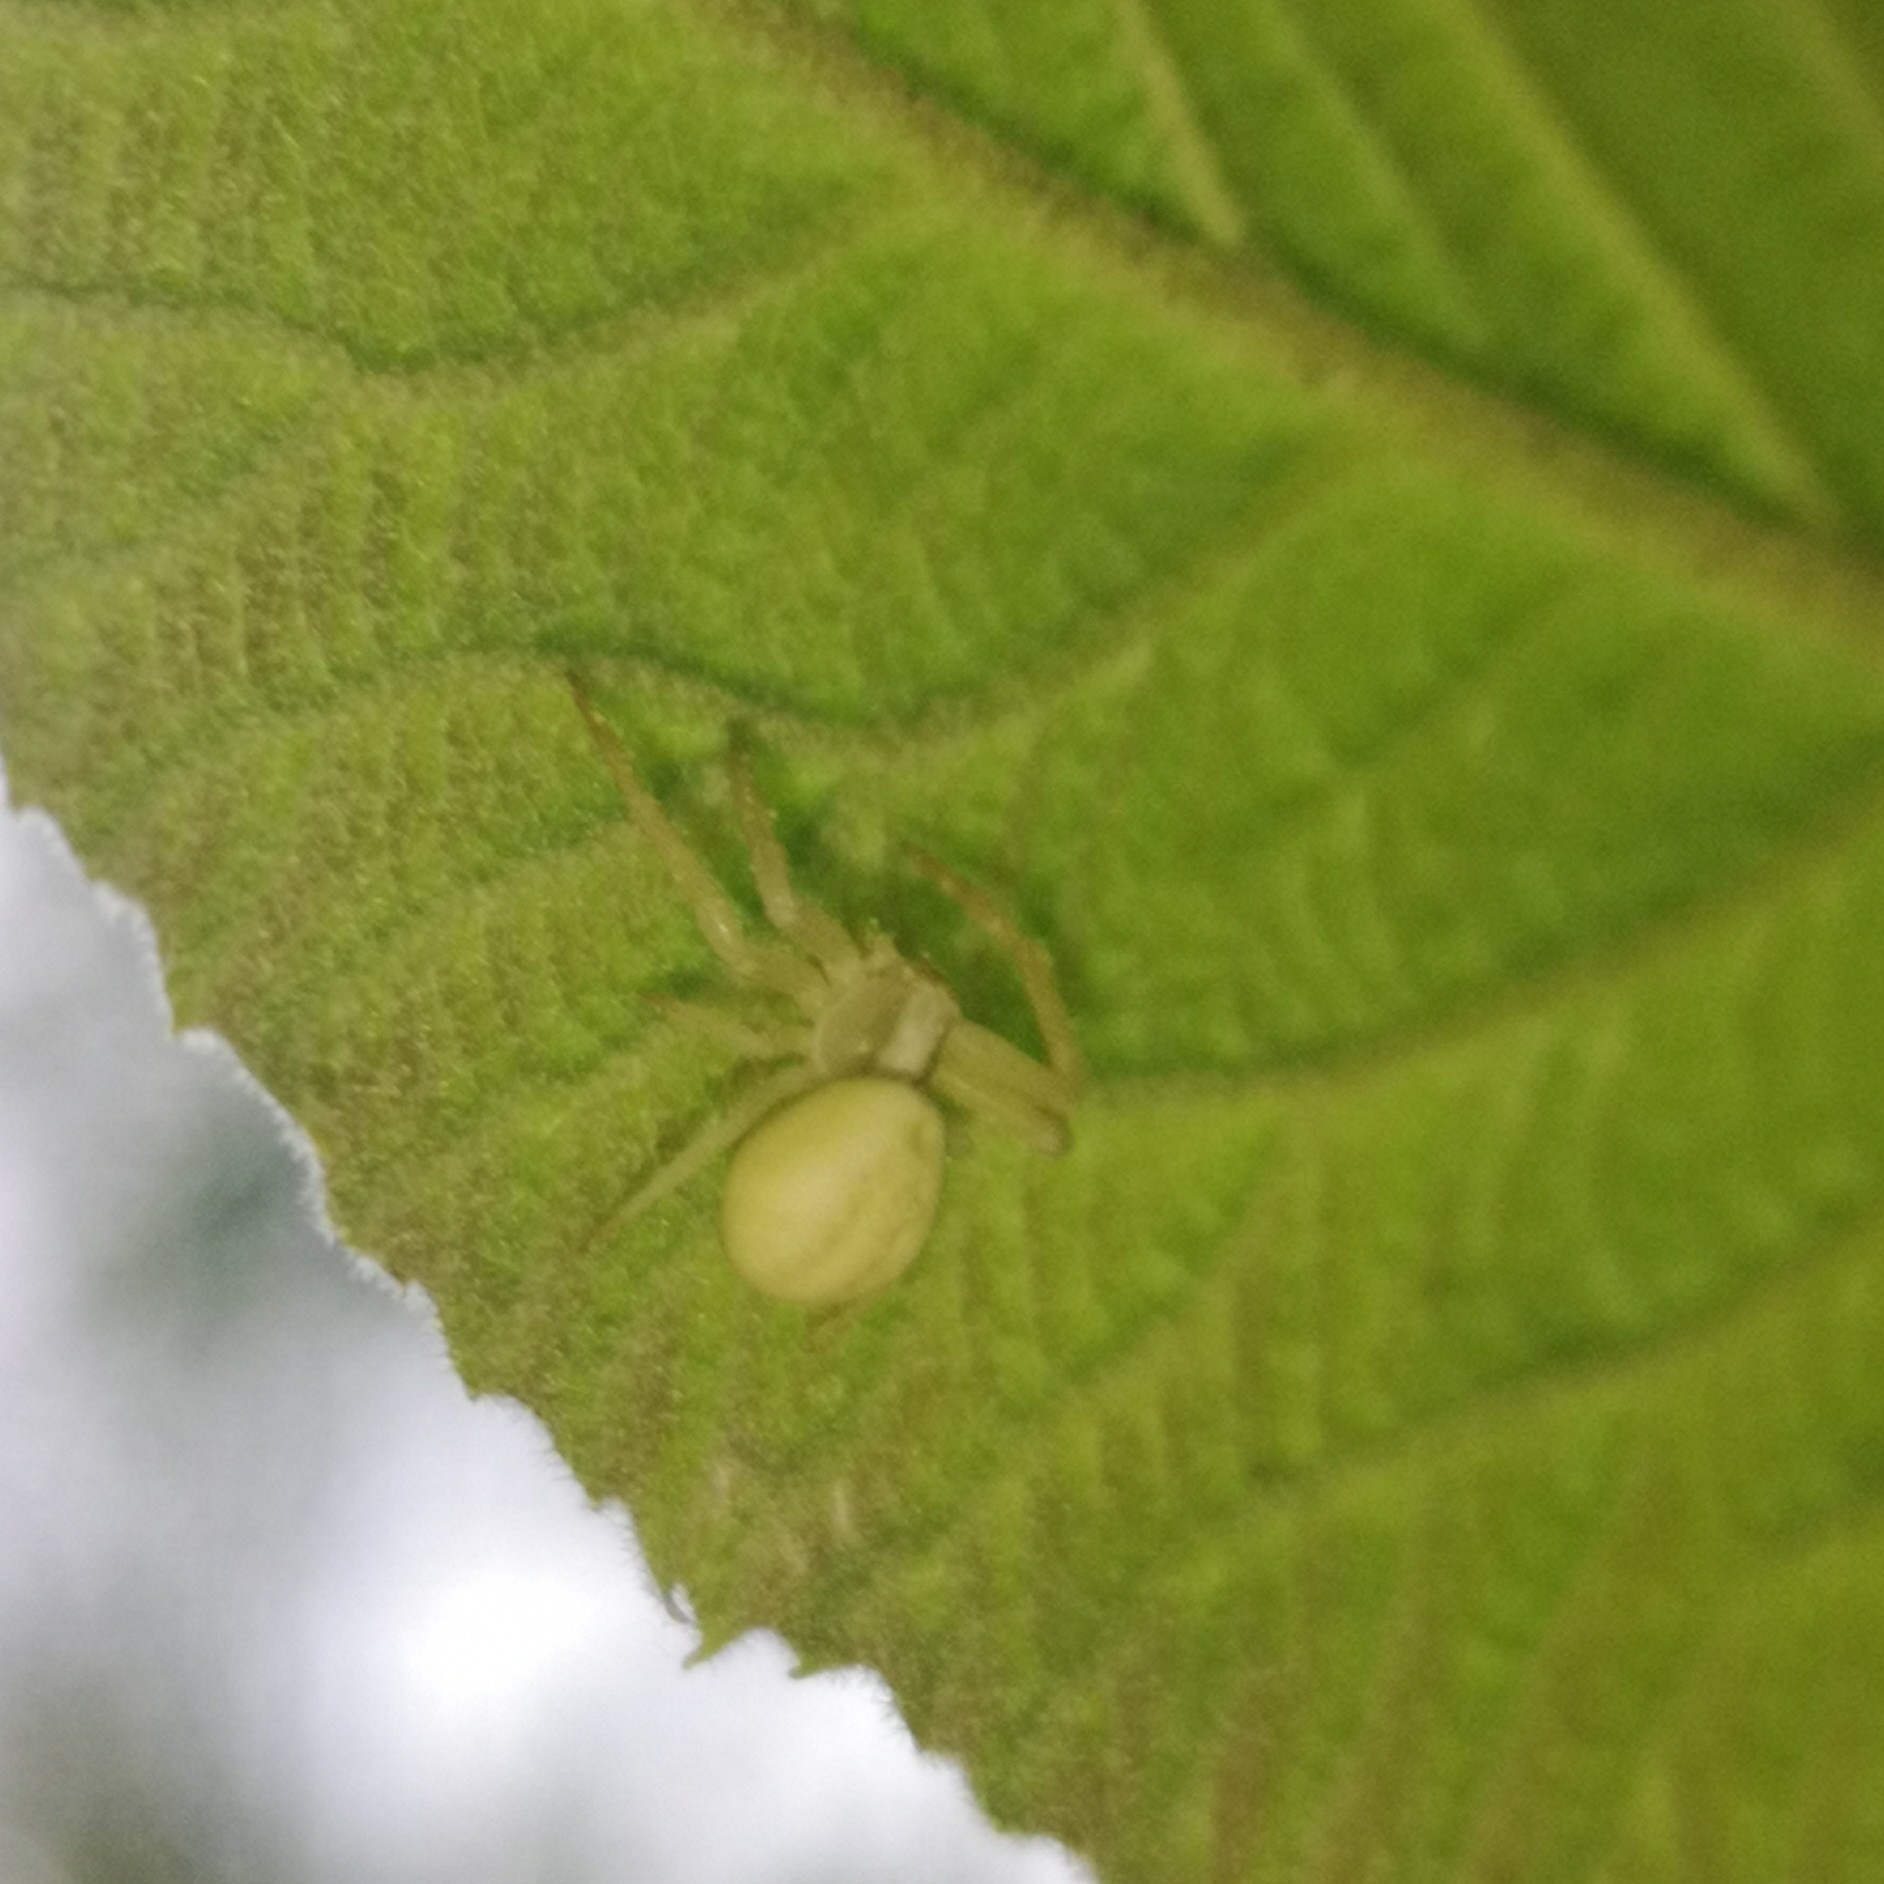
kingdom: Animalia
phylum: Arthropoda
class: Arachnida
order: Araneae
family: Thomisidae
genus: Misumena
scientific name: Misumena vatia
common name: Goldenrod crab spider
